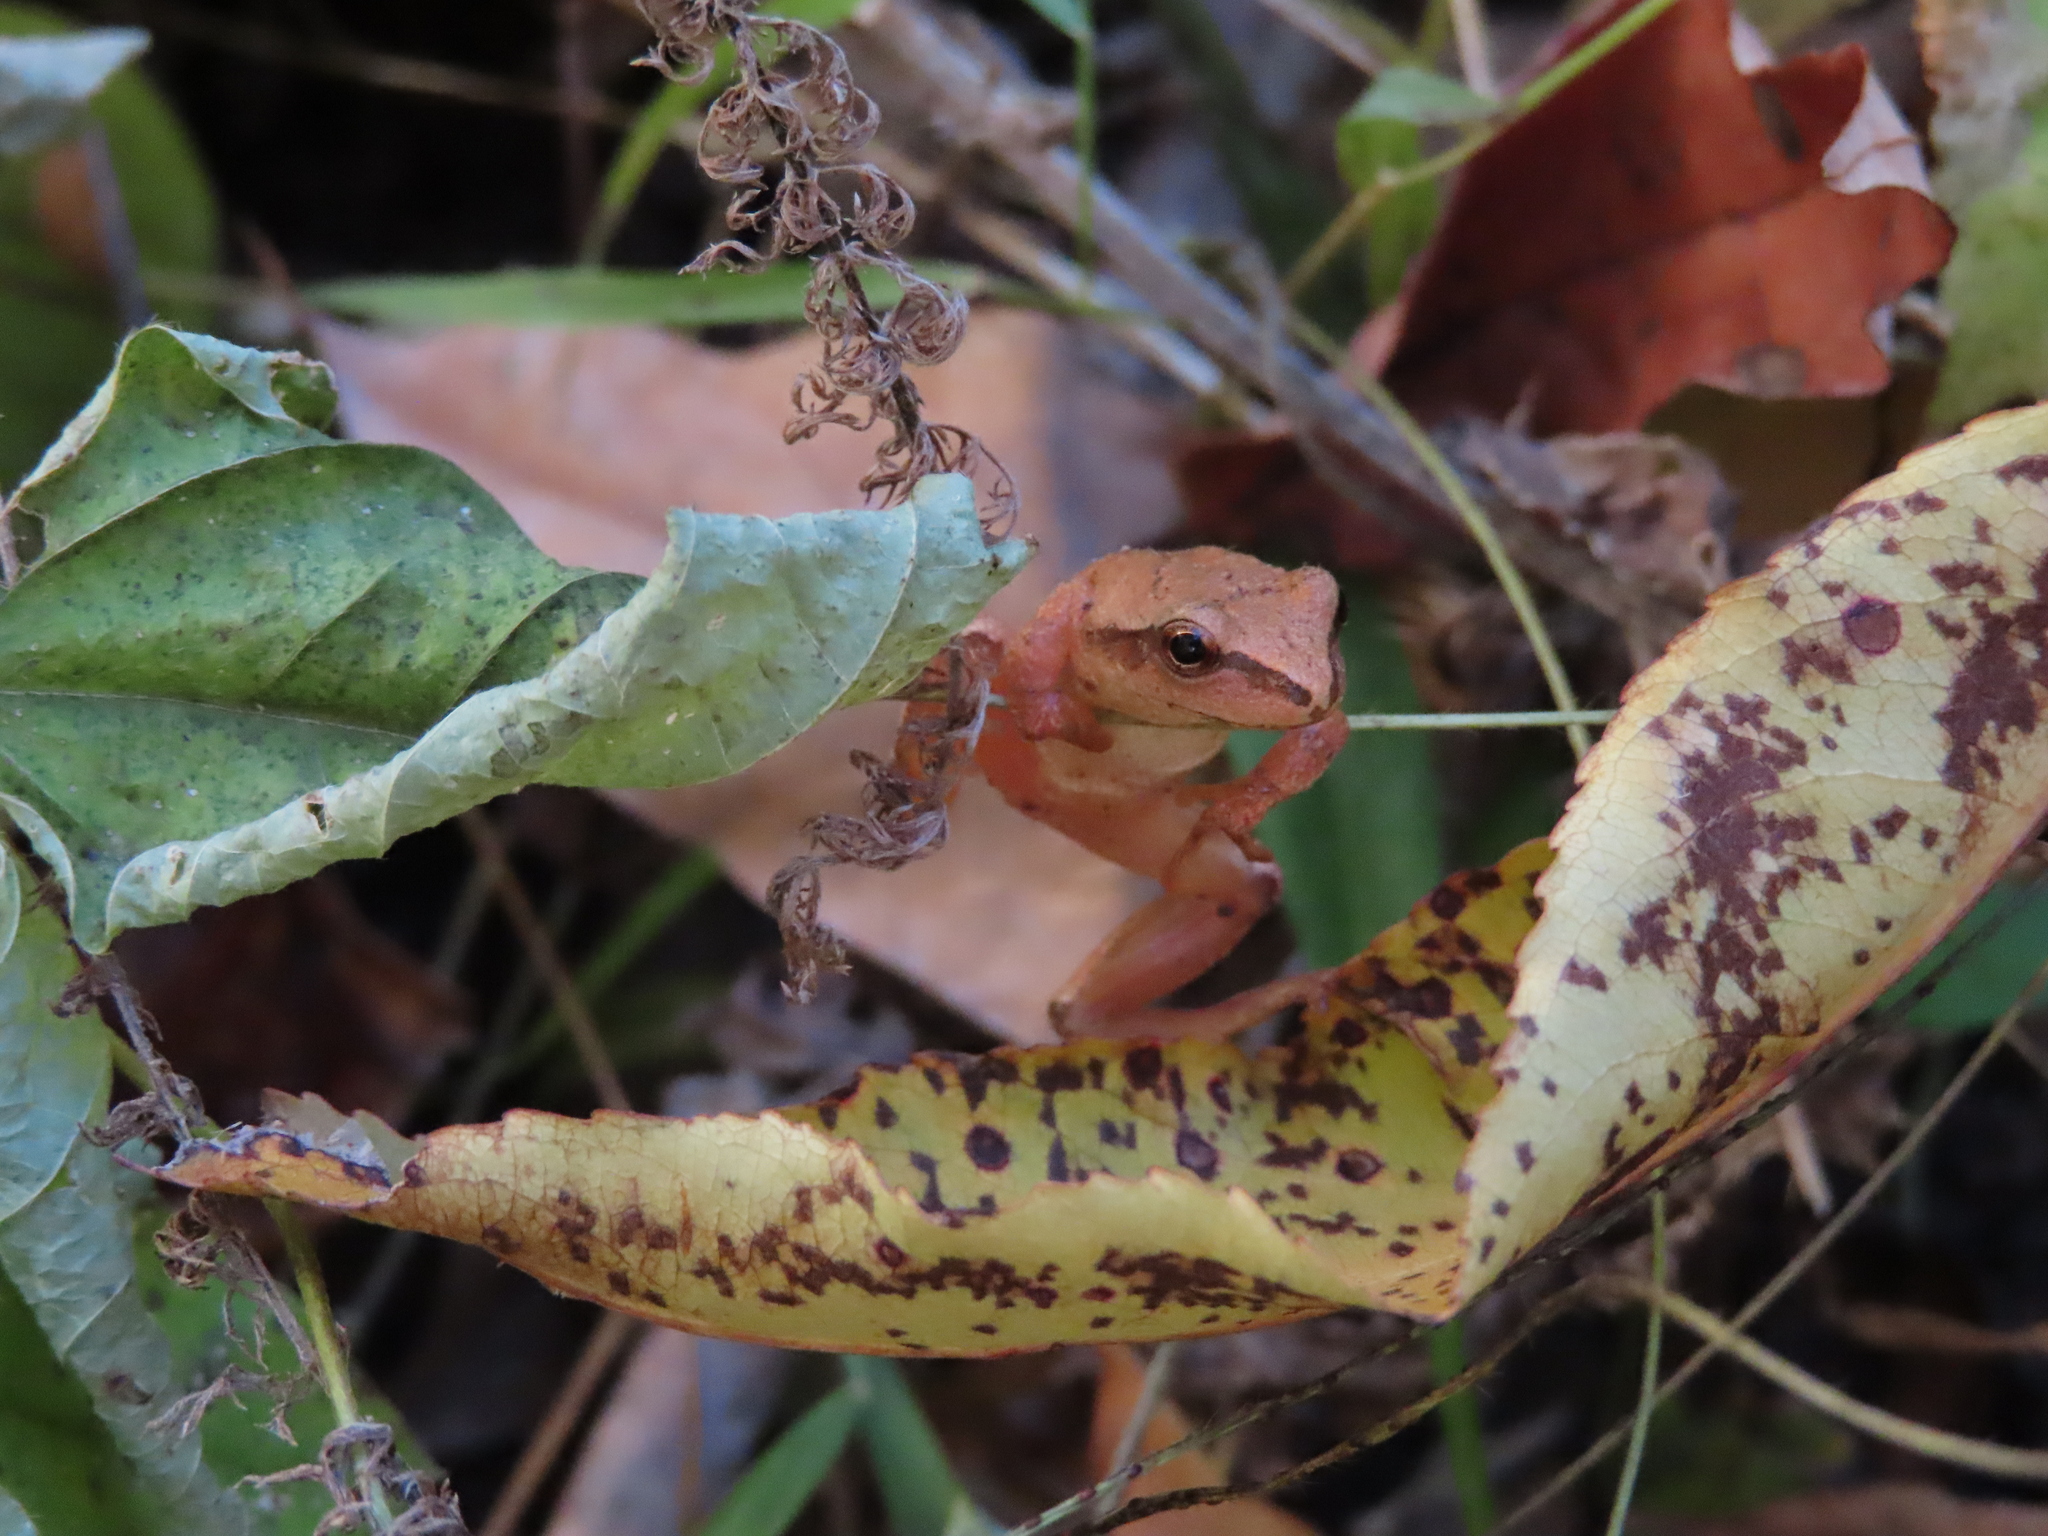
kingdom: Animalia
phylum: Chordata
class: Amphibia
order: Anura
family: Hylidae
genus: Pseudacris
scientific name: Pseudacris crucifer
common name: Spring peeper
